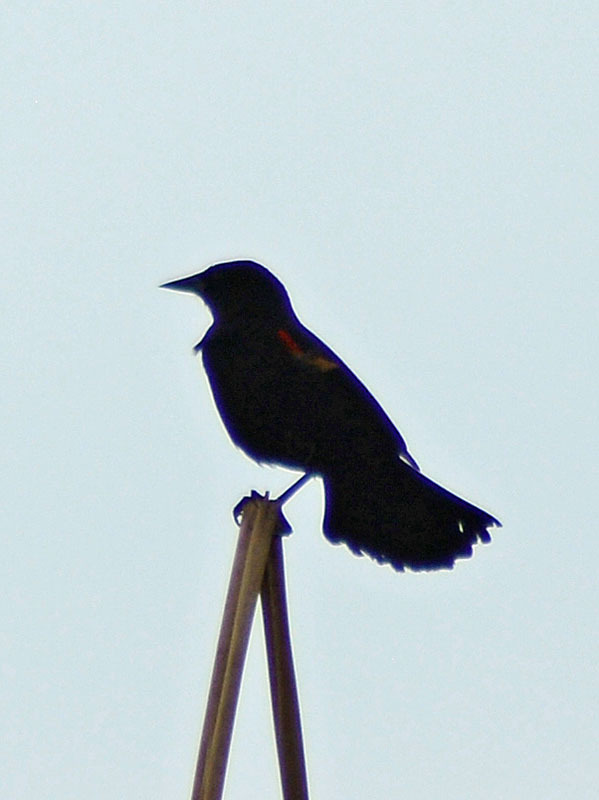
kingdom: Animalia
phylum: Chordata
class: Aves
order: Passeriformes
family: Icteridae
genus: Agelaius
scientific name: Agelaius phoeniceus
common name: Red-winged blackbird
